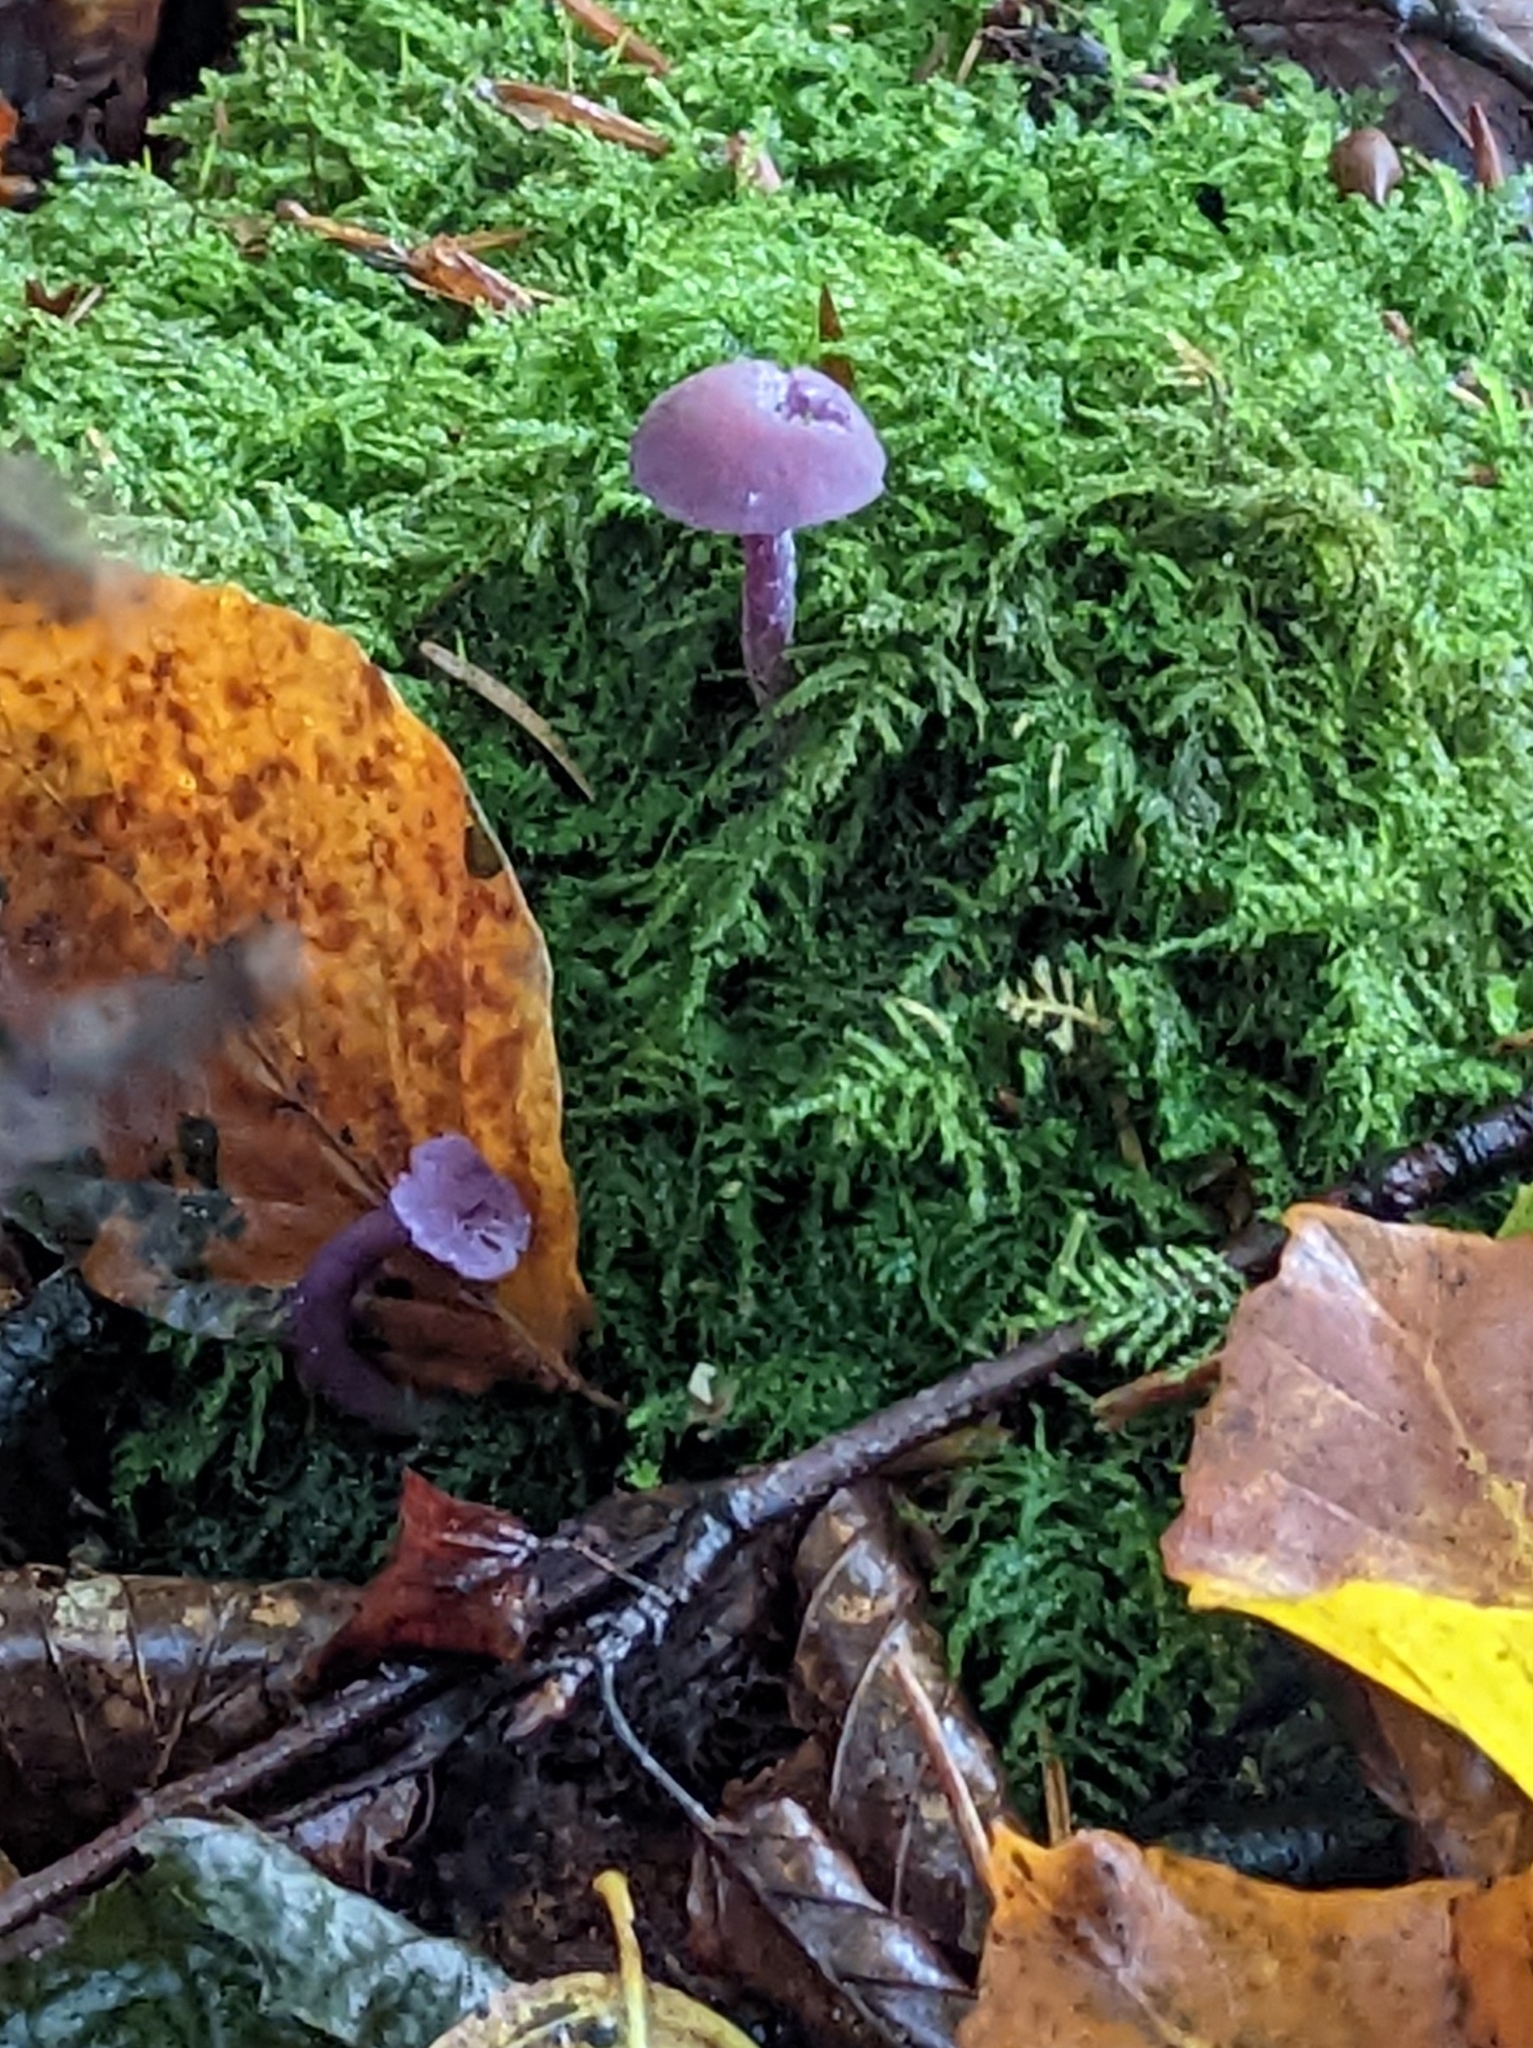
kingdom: Fungi
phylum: Basidiomycota
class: Agaricomycetes
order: Agaricales
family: Hydnangiaceae
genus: Laccaria
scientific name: Laccaria amethystina
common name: Amethyst deceiver
